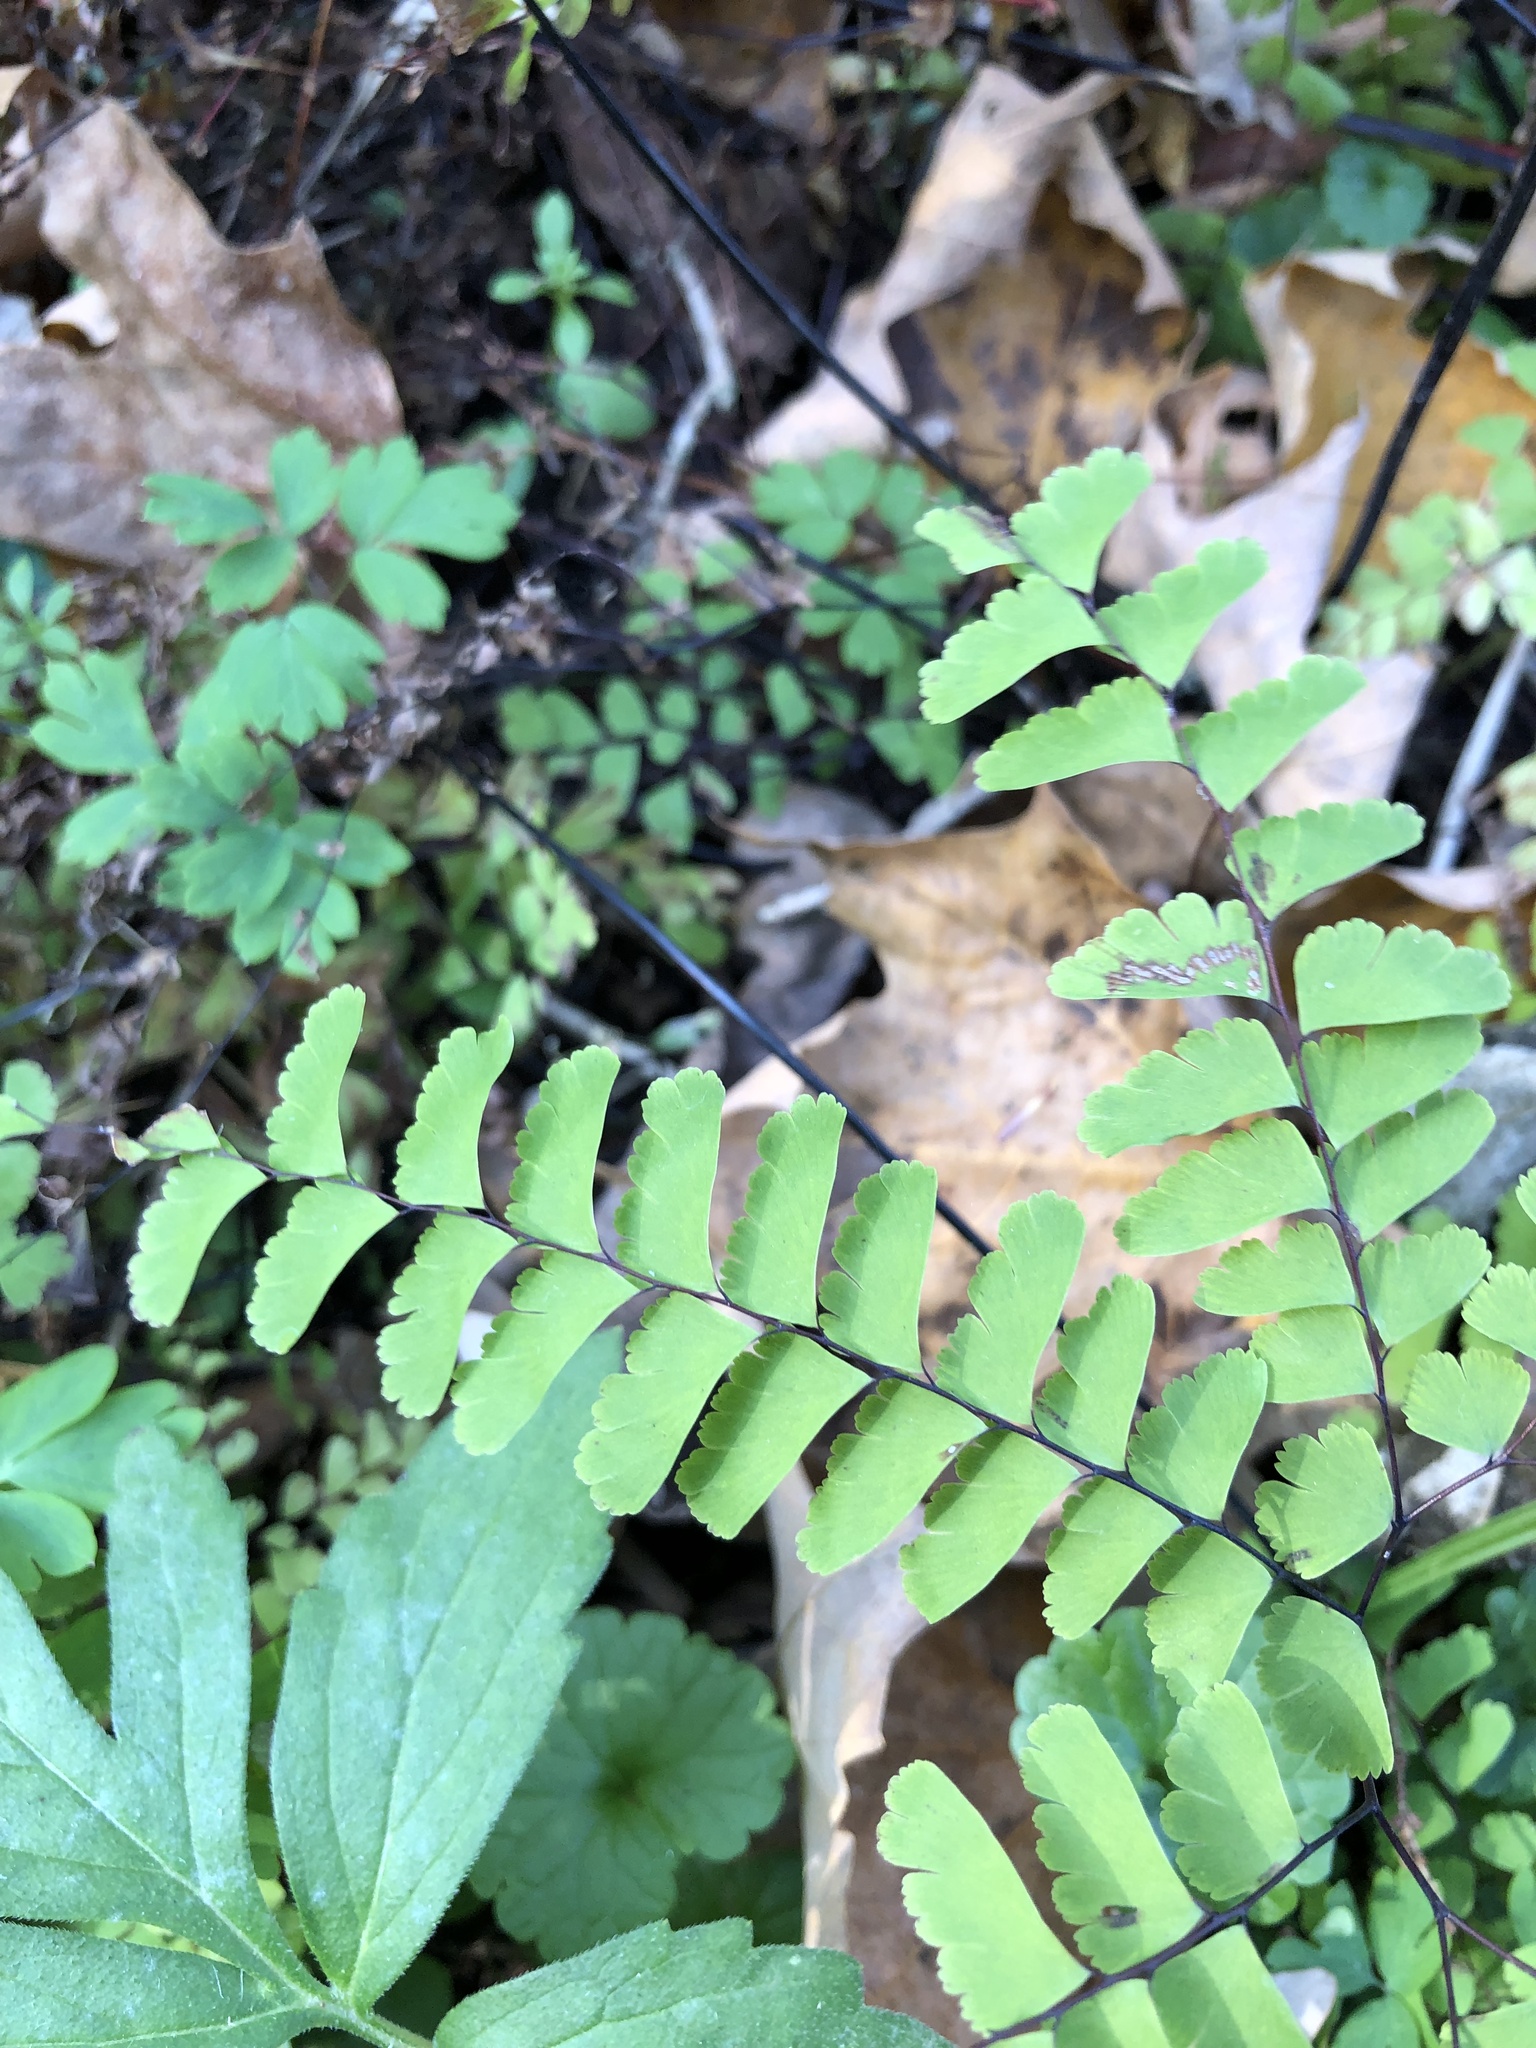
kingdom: Plantae
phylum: Tracheophyta
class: Polypodiopsida
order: Polypodiales
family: Pteridaceae
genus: Adiantum
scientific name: Adiantum pedatum
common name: Five-finger fern
